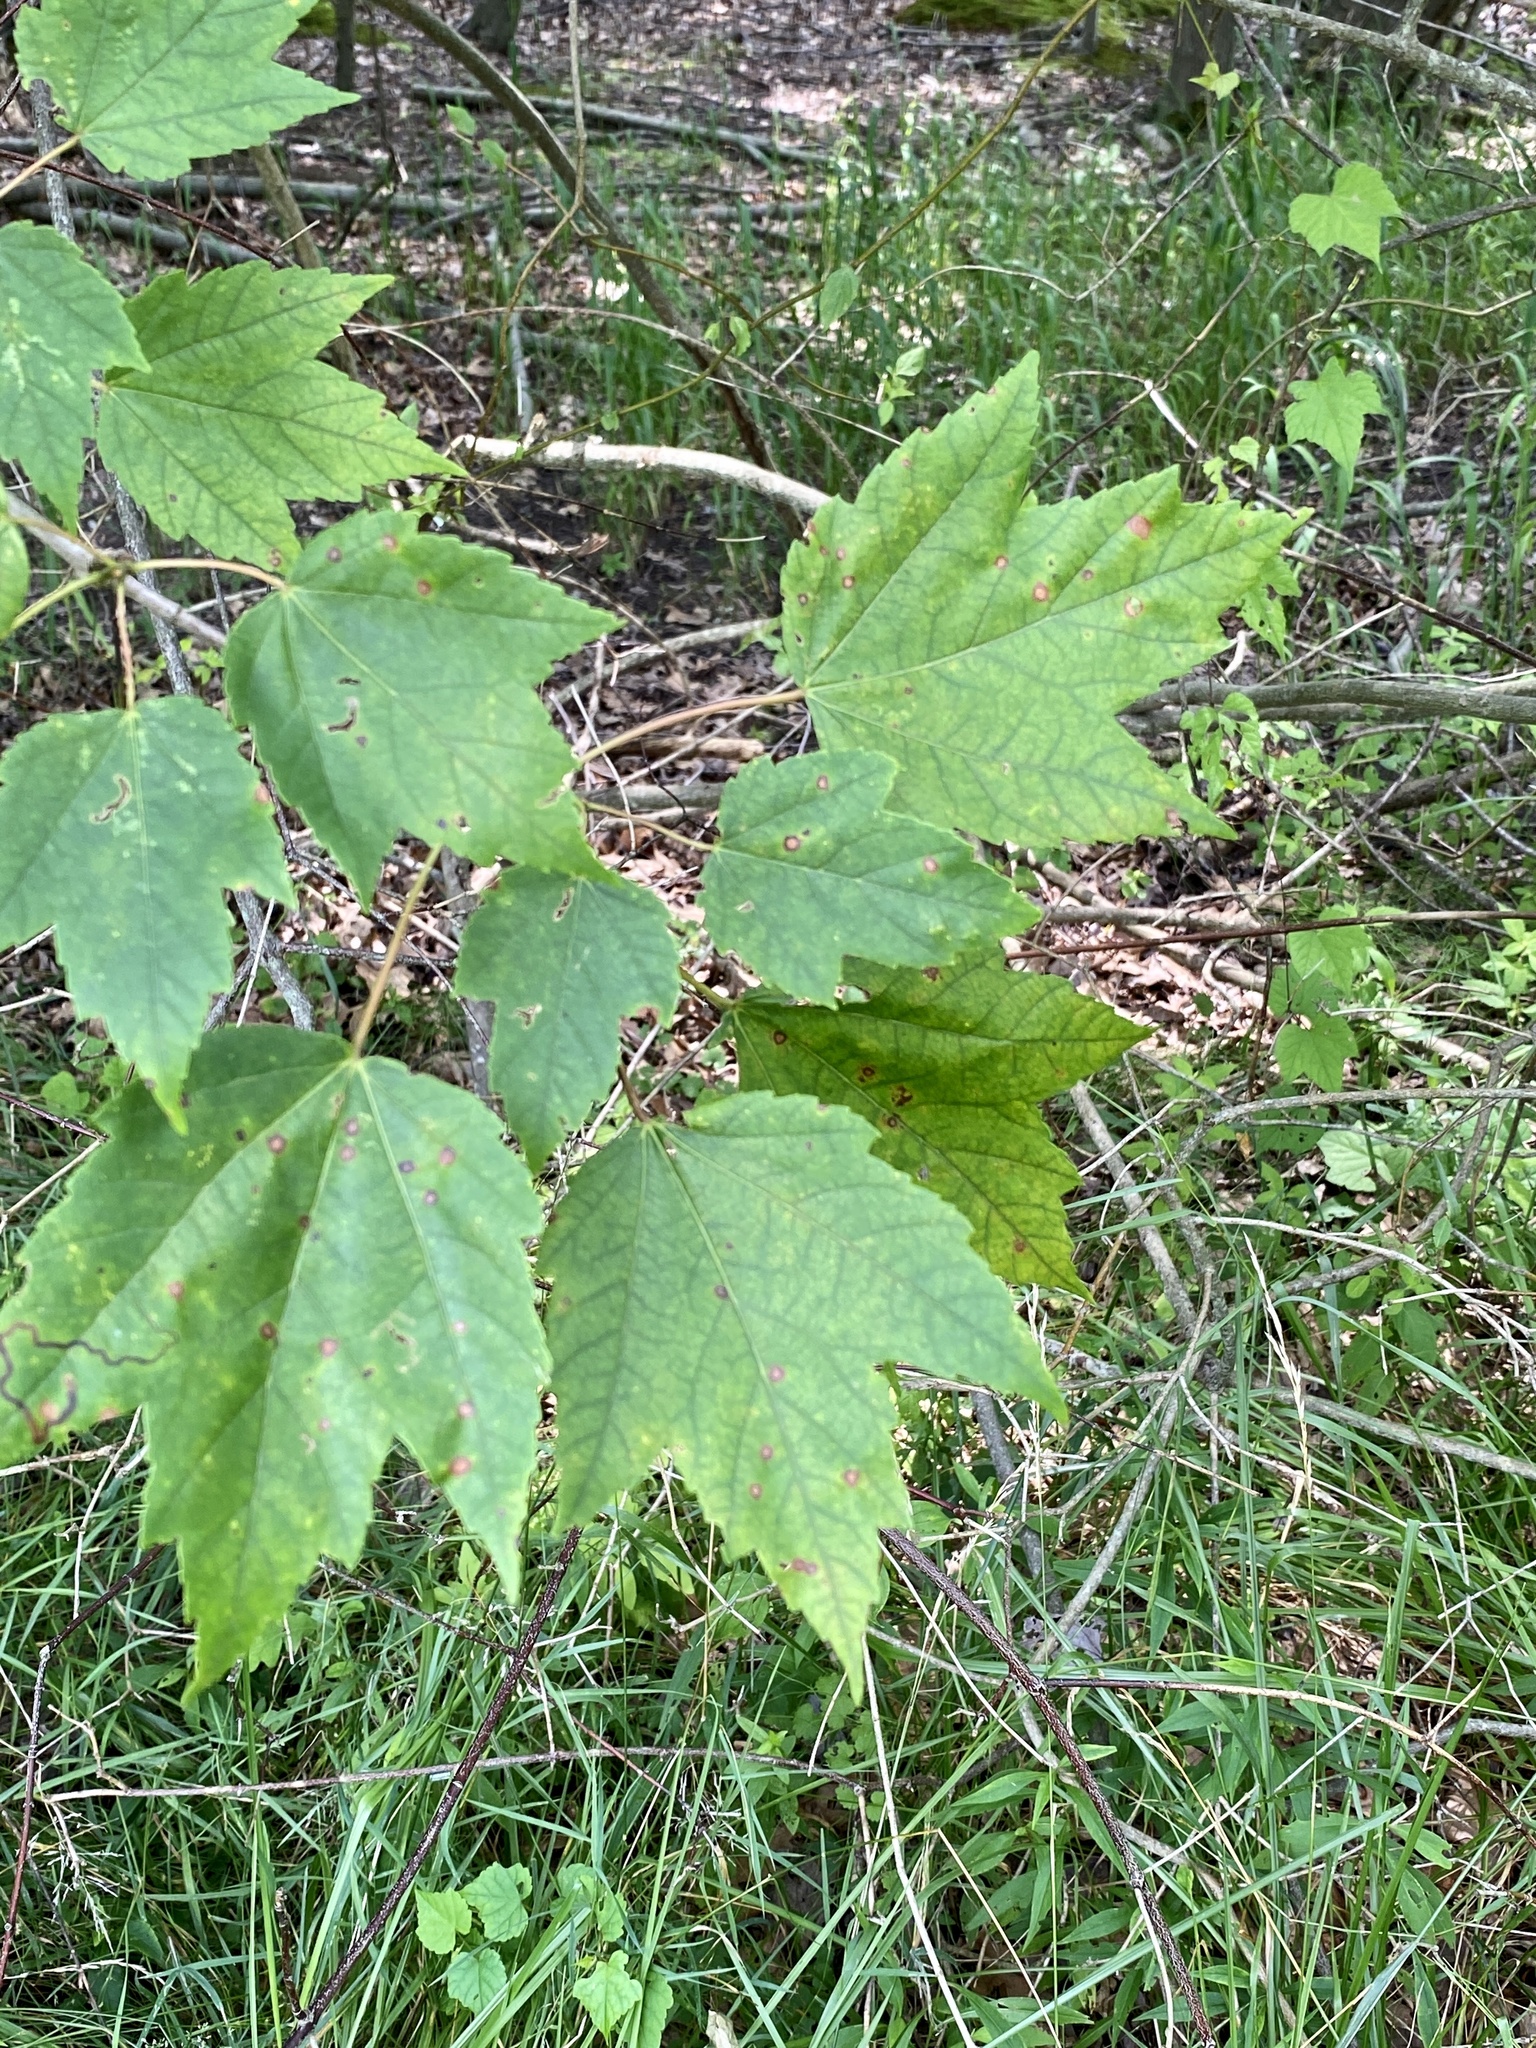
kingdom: Plantae
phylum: Tracheophyta
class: Magnoliopsida
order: Sapindales
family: Sapindaceae
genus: Acer
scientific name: Acer rubrum
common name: Red maple
